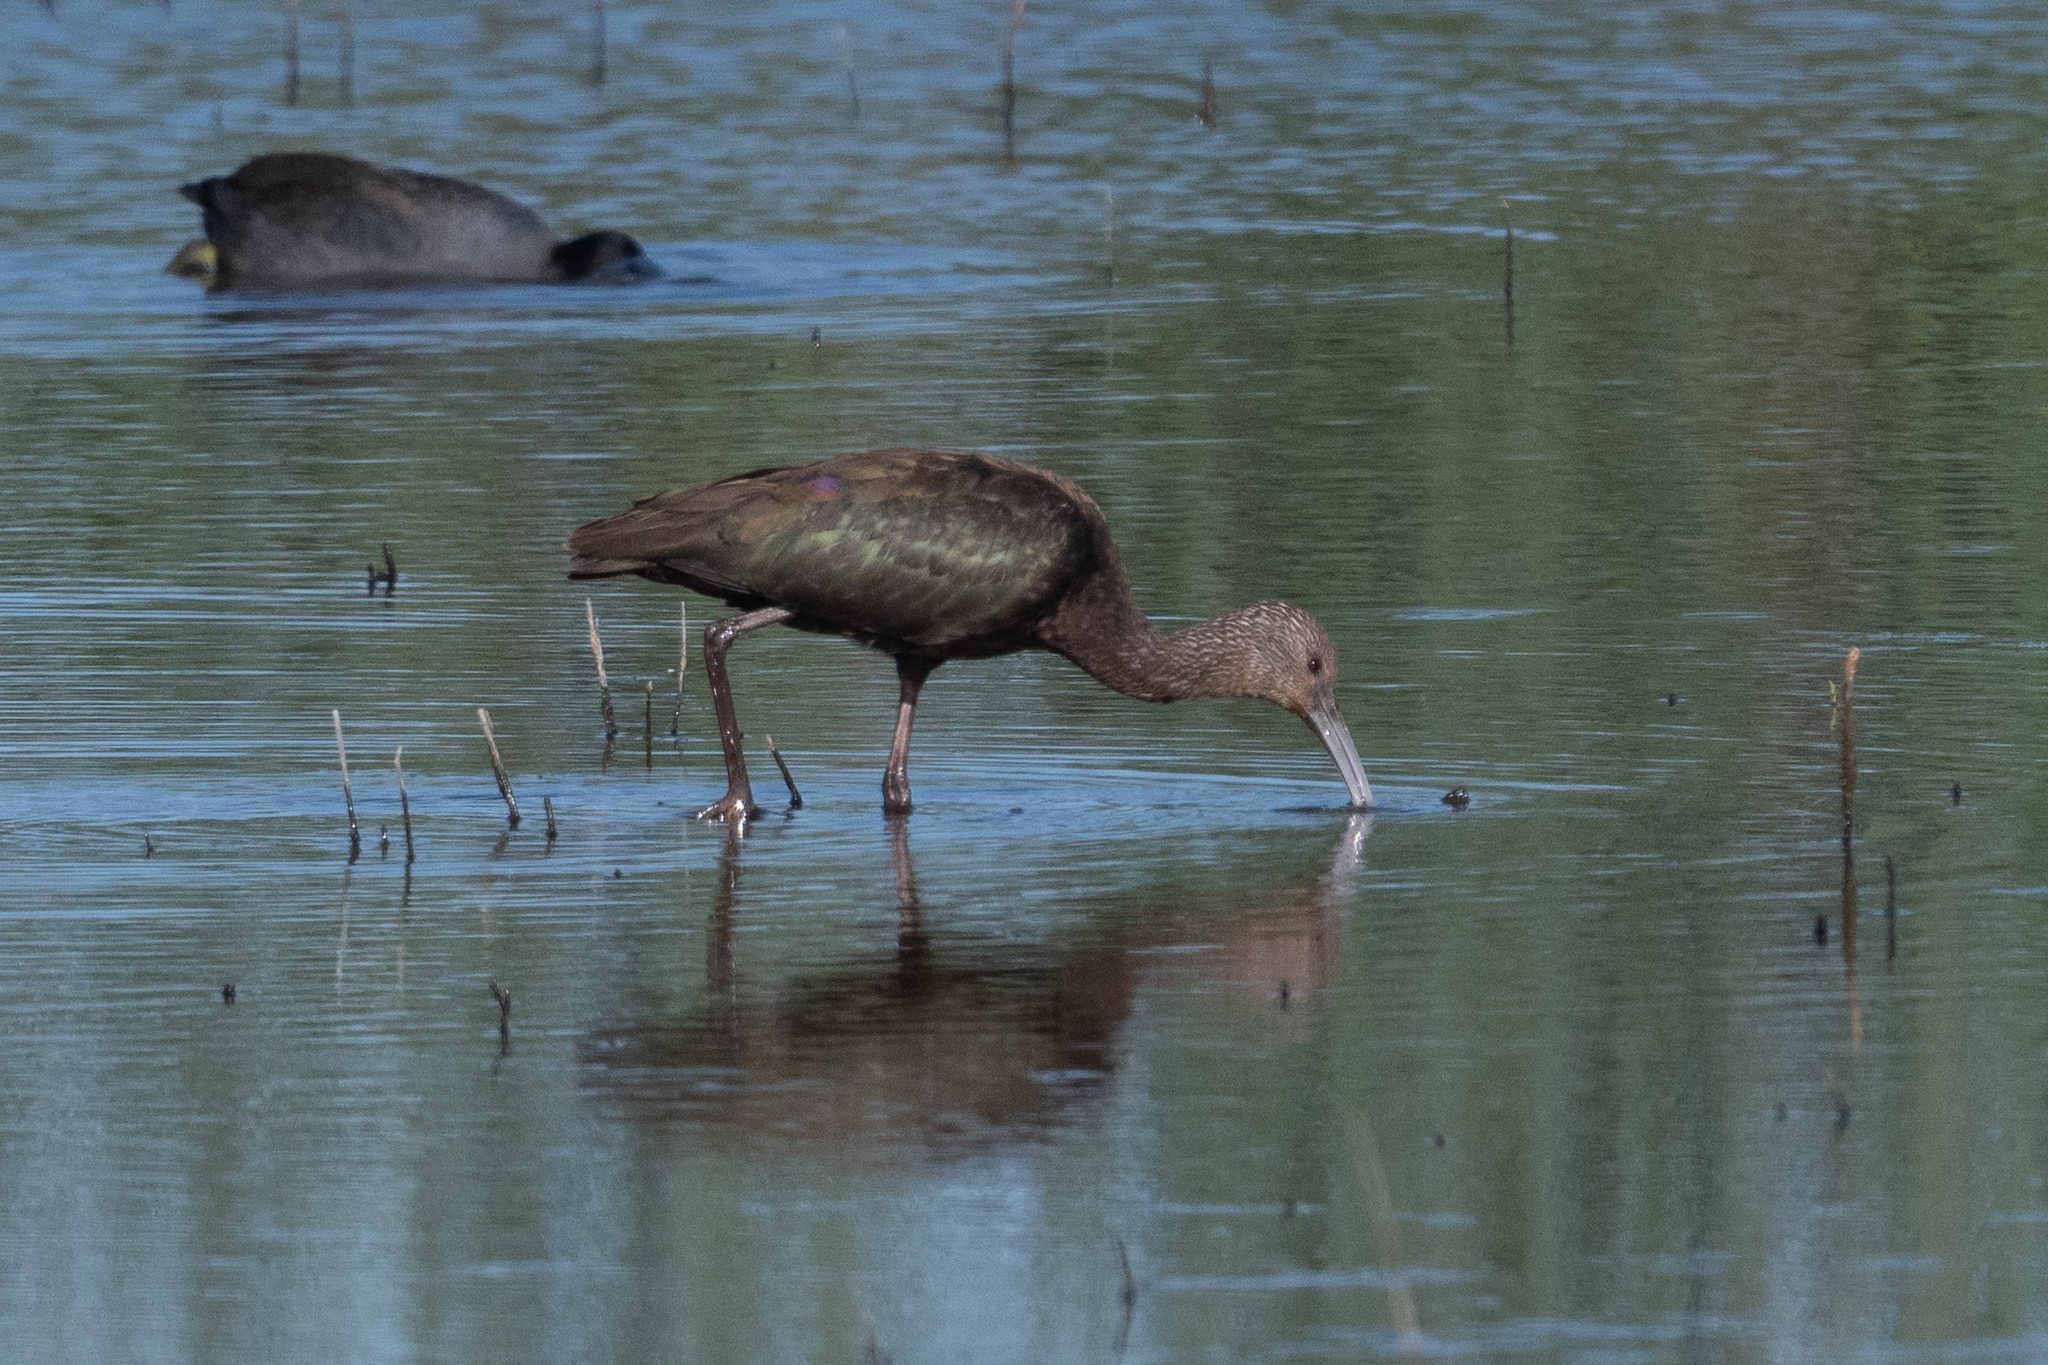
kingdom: Animalia
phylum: Chordata
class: Aves
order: Pelecaniformes
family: Threskiornithidae
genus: Plegadis
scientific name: Plegadis chihi
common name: White-faced ibis
